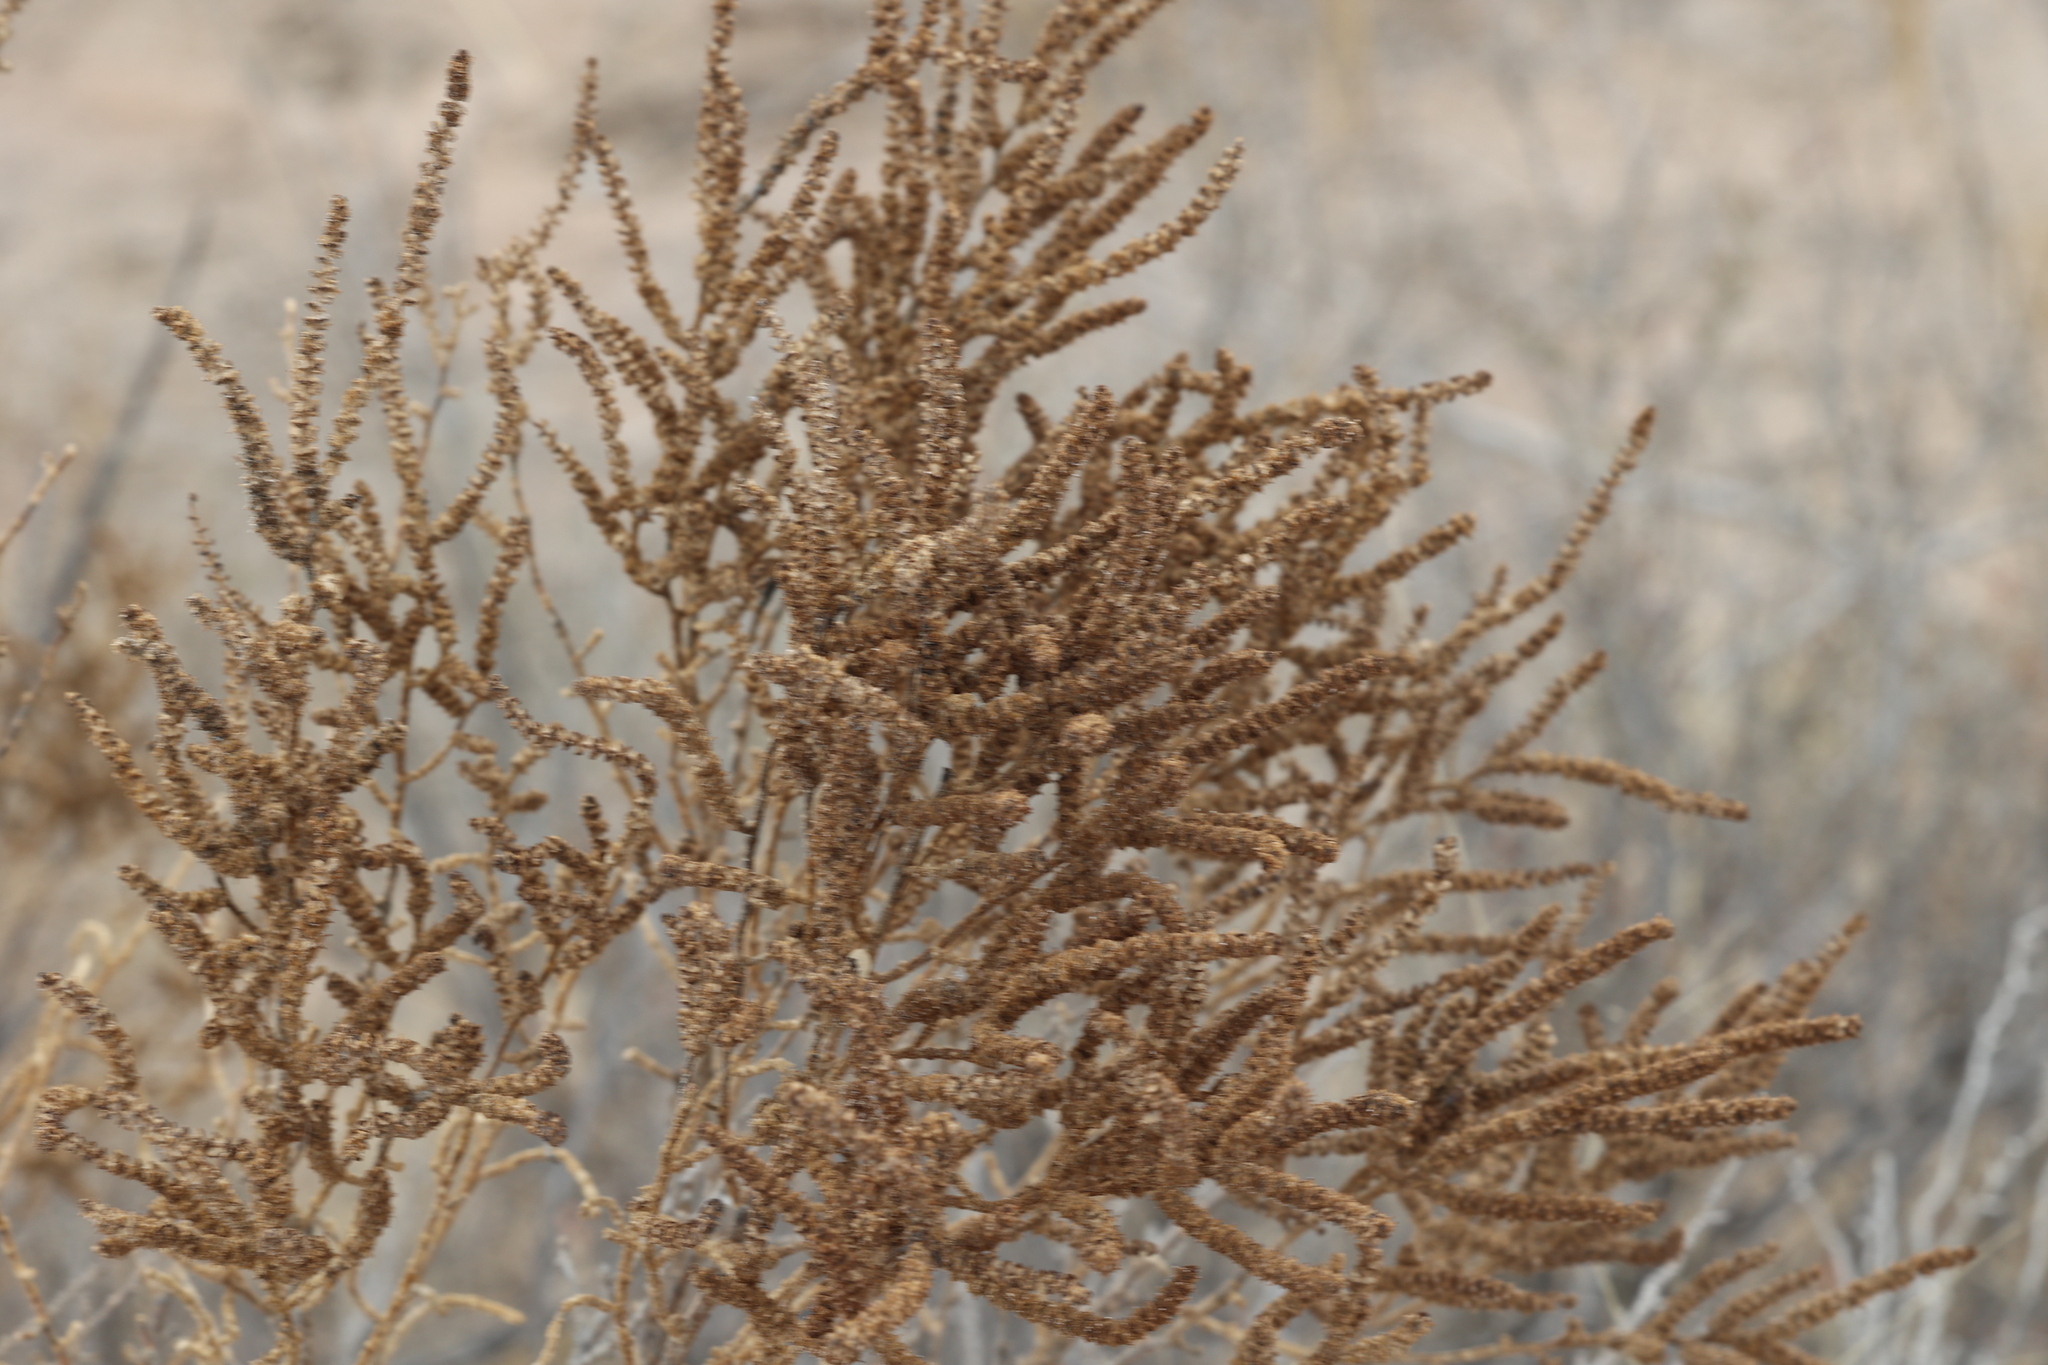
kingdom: Plantae
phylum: Tracheophyta
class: Magnoliopsida
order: Caryophyllales
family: Amaranthaceae
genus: Allenrolfea
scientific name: Allenrolfea occidentalis
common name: Iodine-bush
